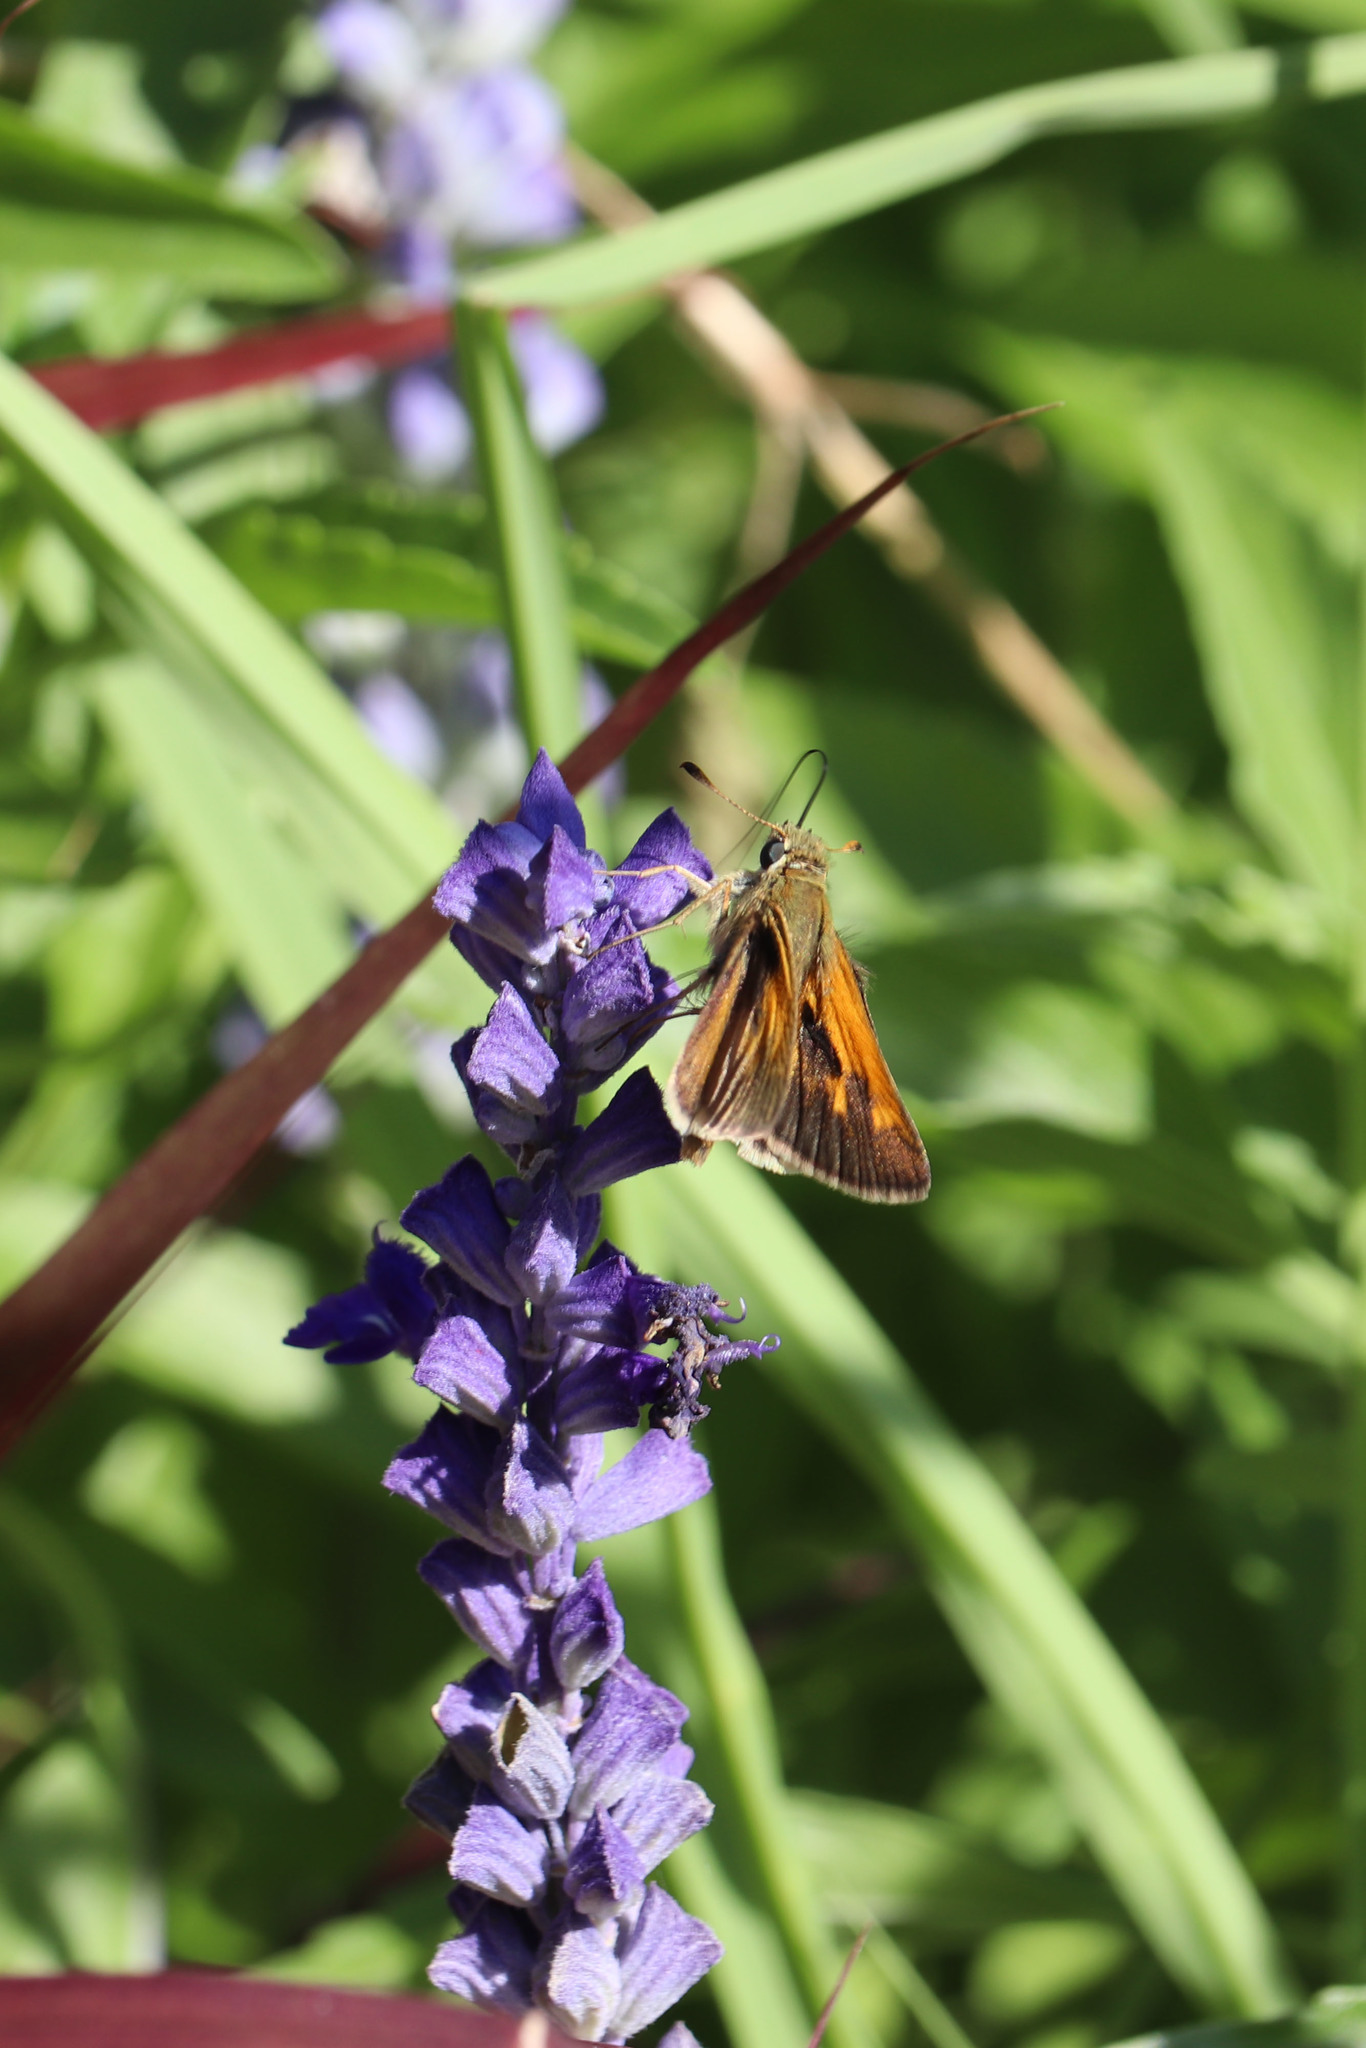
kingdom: Animalia
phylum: Arthropoda
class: Insecta
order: Lepidoptera
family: Hesperiidae
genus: Polites
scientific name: Polites themistocles
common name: Tawny-edged skipper
